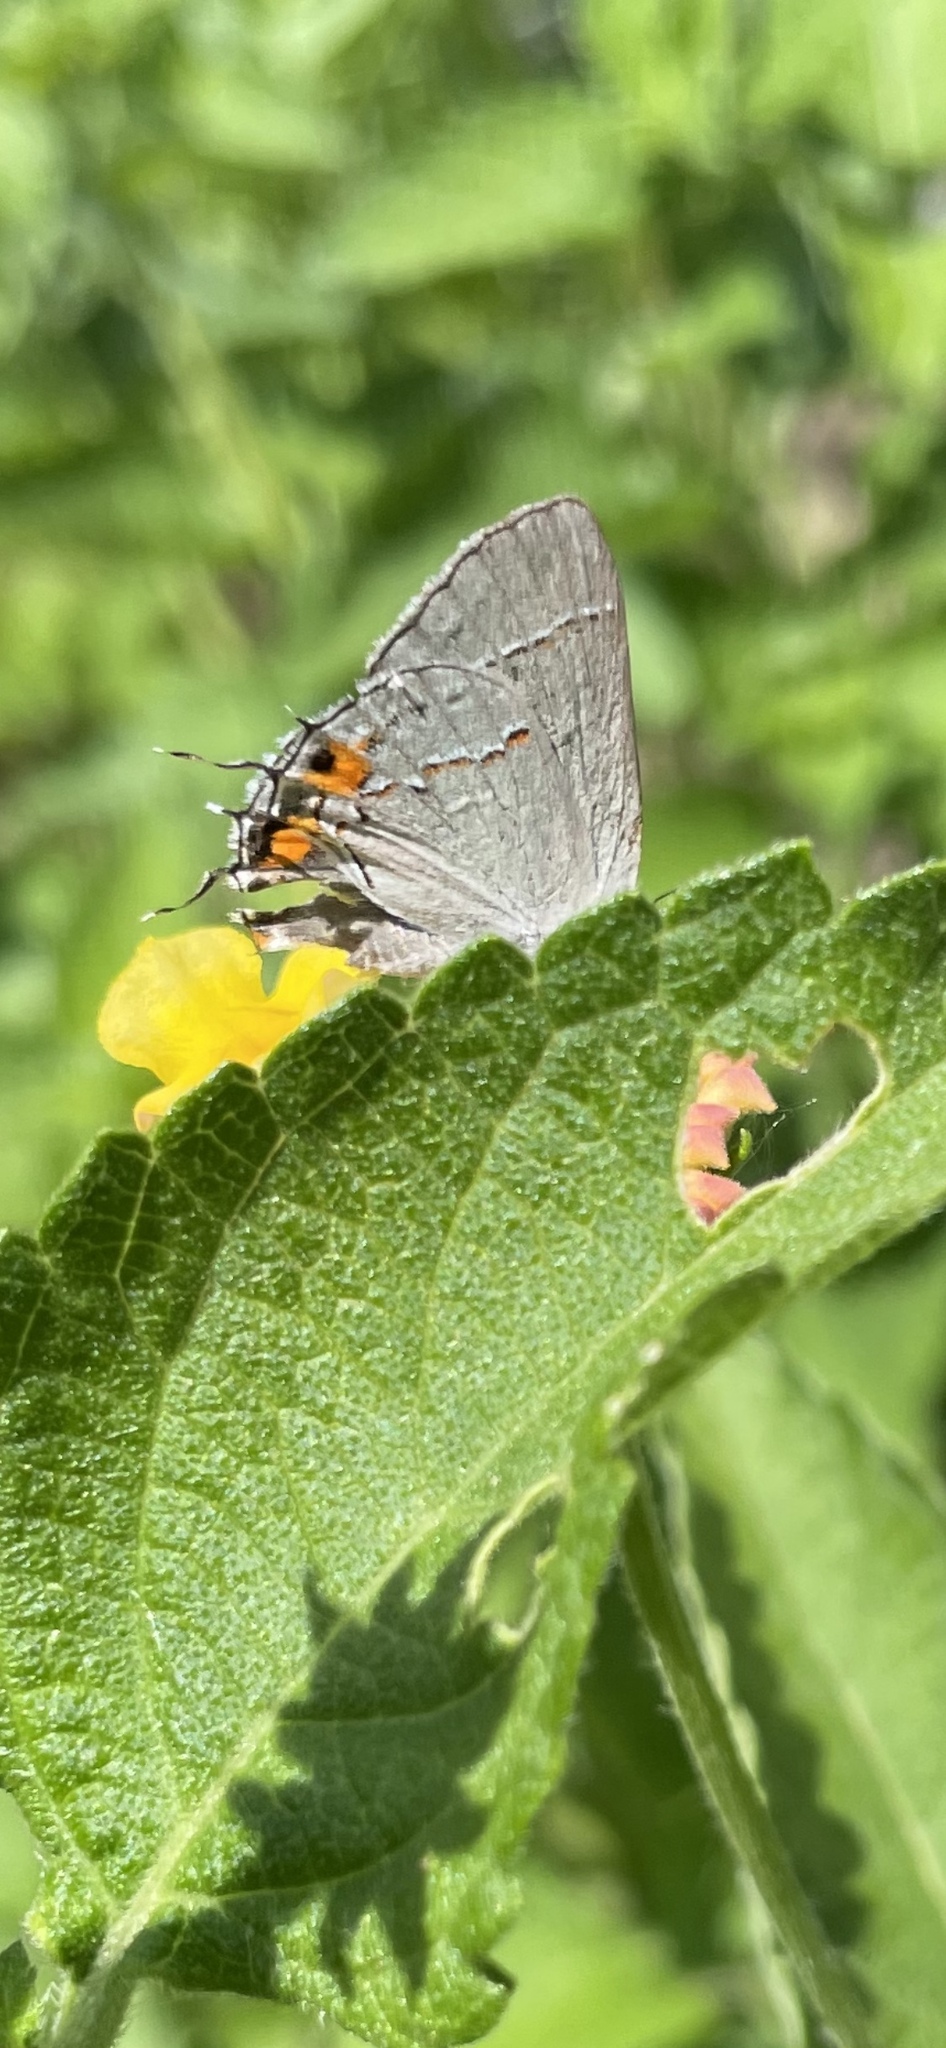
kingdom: Animalia
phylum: Arthropoda
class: Insecta
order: Lepidoptera
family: Lycaenidae
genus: Strymon
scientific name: Strymon melinus
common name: Gray hairstreak
